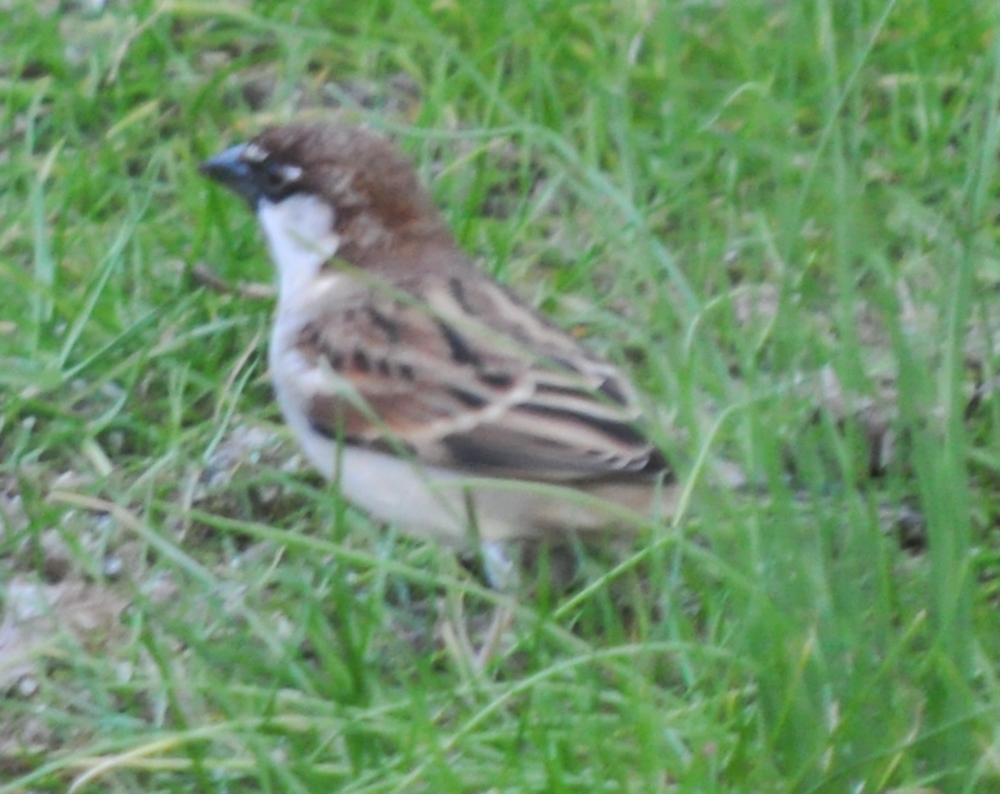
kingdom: Animalia
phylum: Chordata
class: Aves
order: Passeriformes
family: Passeridae
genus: Passer
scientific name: Passer italiae
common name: Italian sparrow
